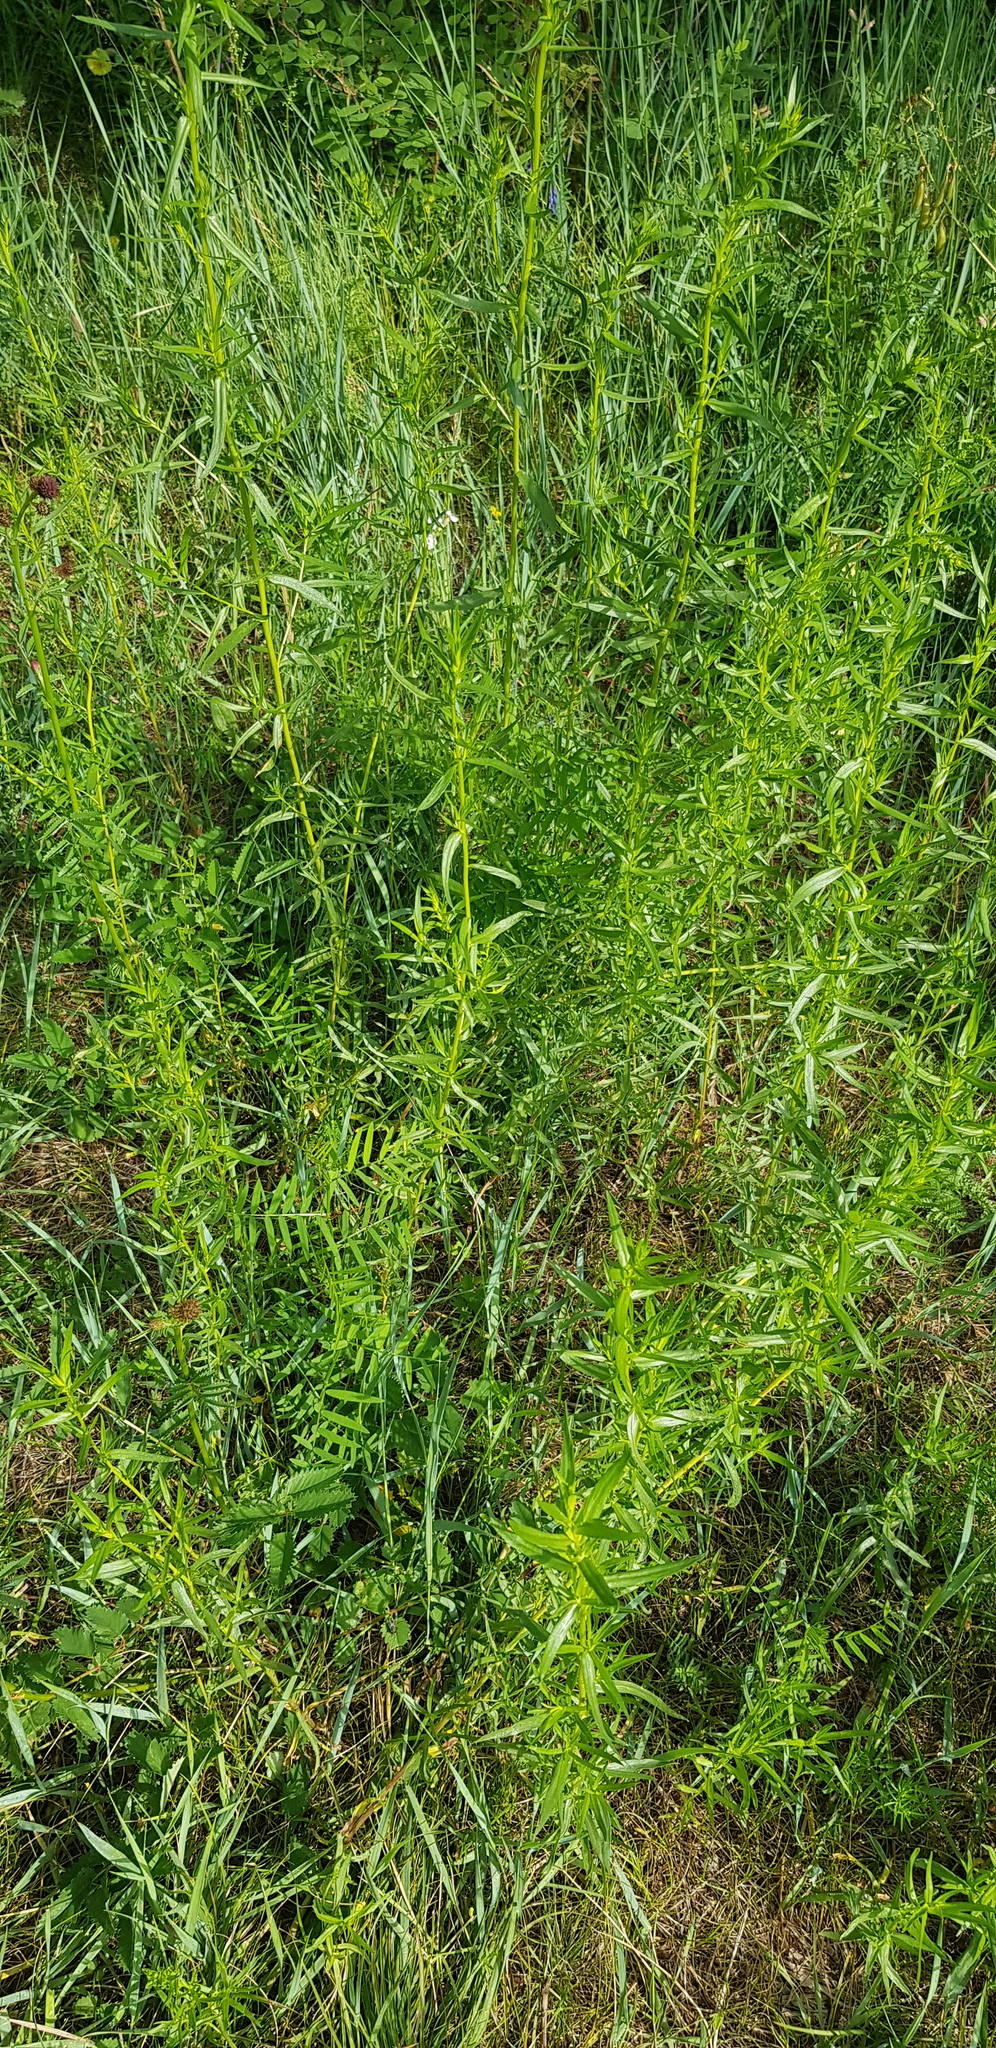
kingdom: Plantae
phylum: Tracheophyta
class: Magnoliopsida
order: Caryophyllales
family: Caryophyllaceae
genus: Silene
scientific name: Silene amoena
